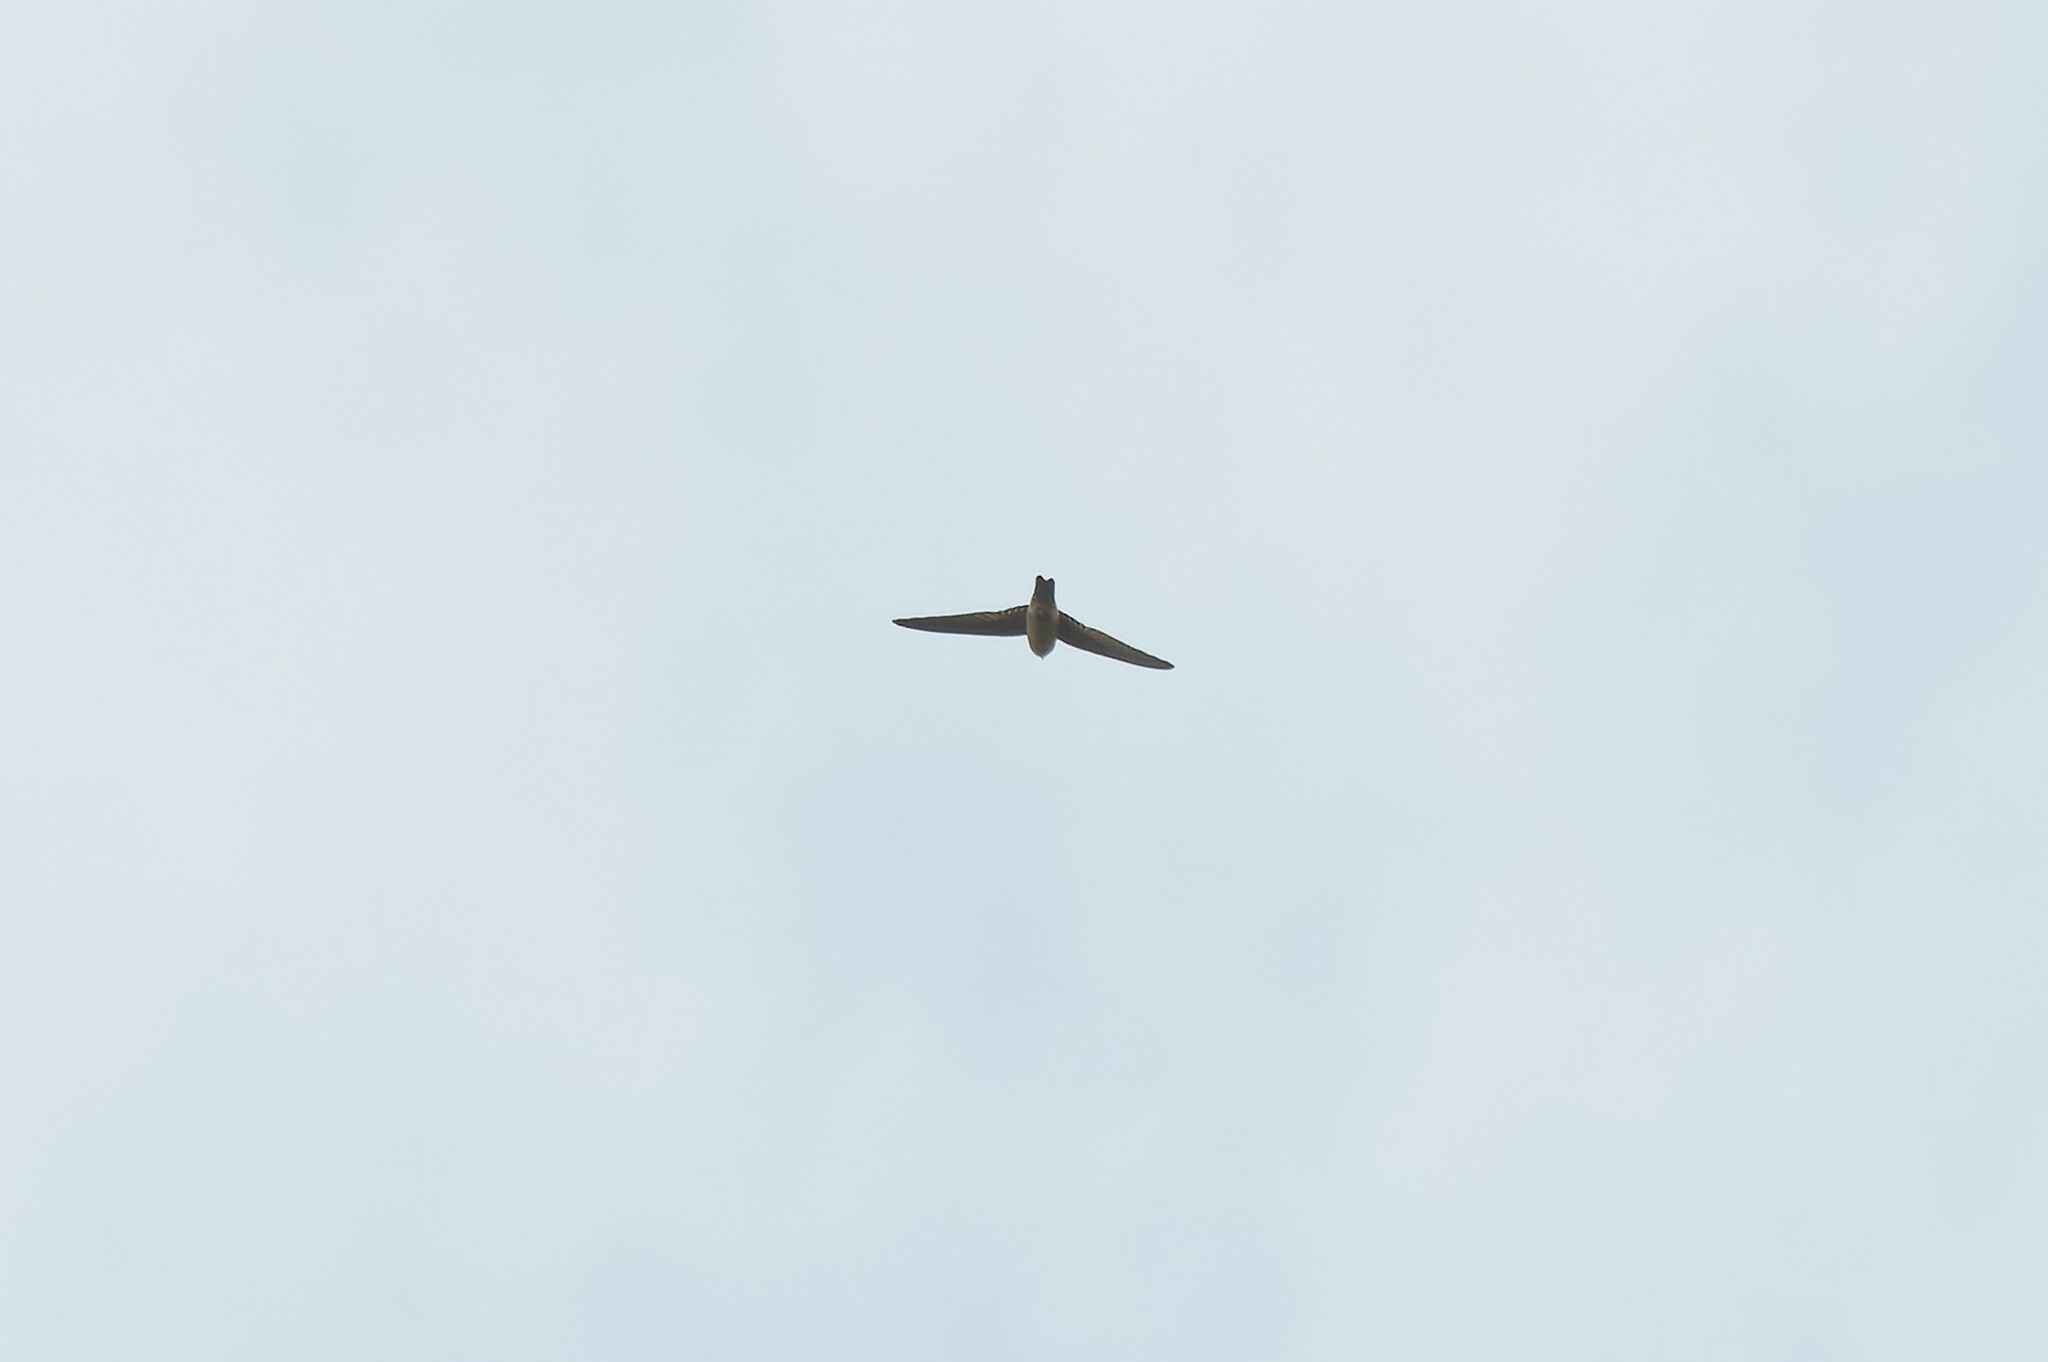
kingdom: Animalia
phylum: Chordata
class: Aves
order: Apodiformes
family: Apodidae
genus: Aerodramus
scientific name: Aerodramus germani
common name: Germain's swiftlet
